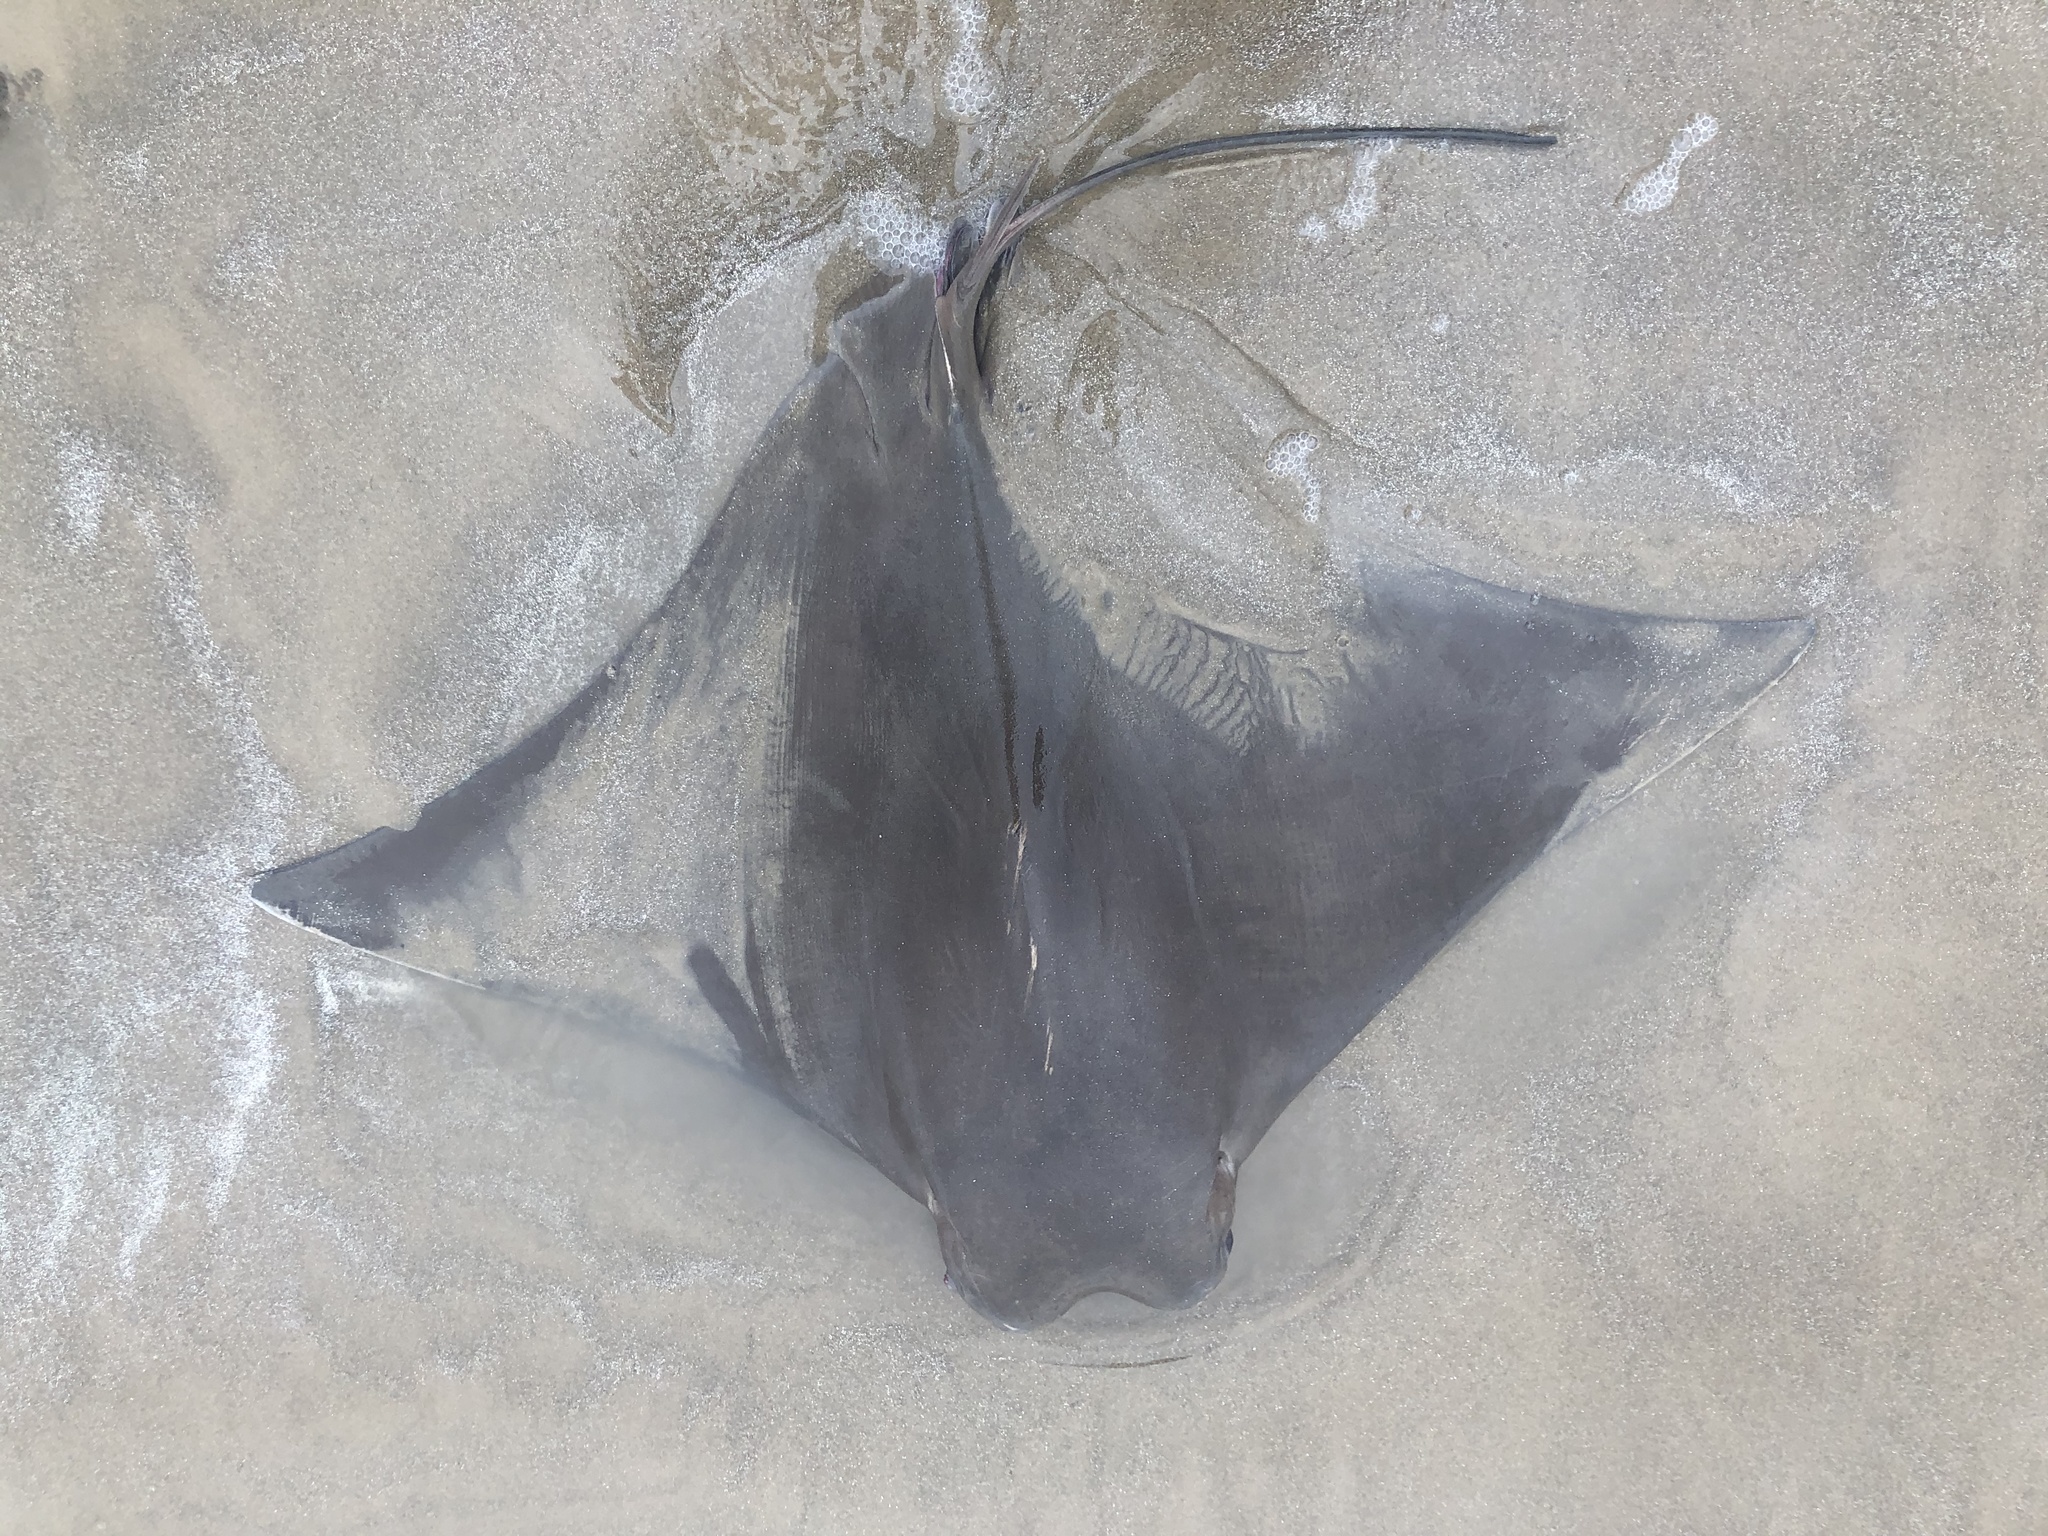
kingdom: Animalia
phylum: Chordata
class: Elasmobranchii
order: Myliobatiformes
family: Myliobatidae
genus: Rhinoptera
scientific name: Rhinoptera bonasus
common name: Cownose ray
